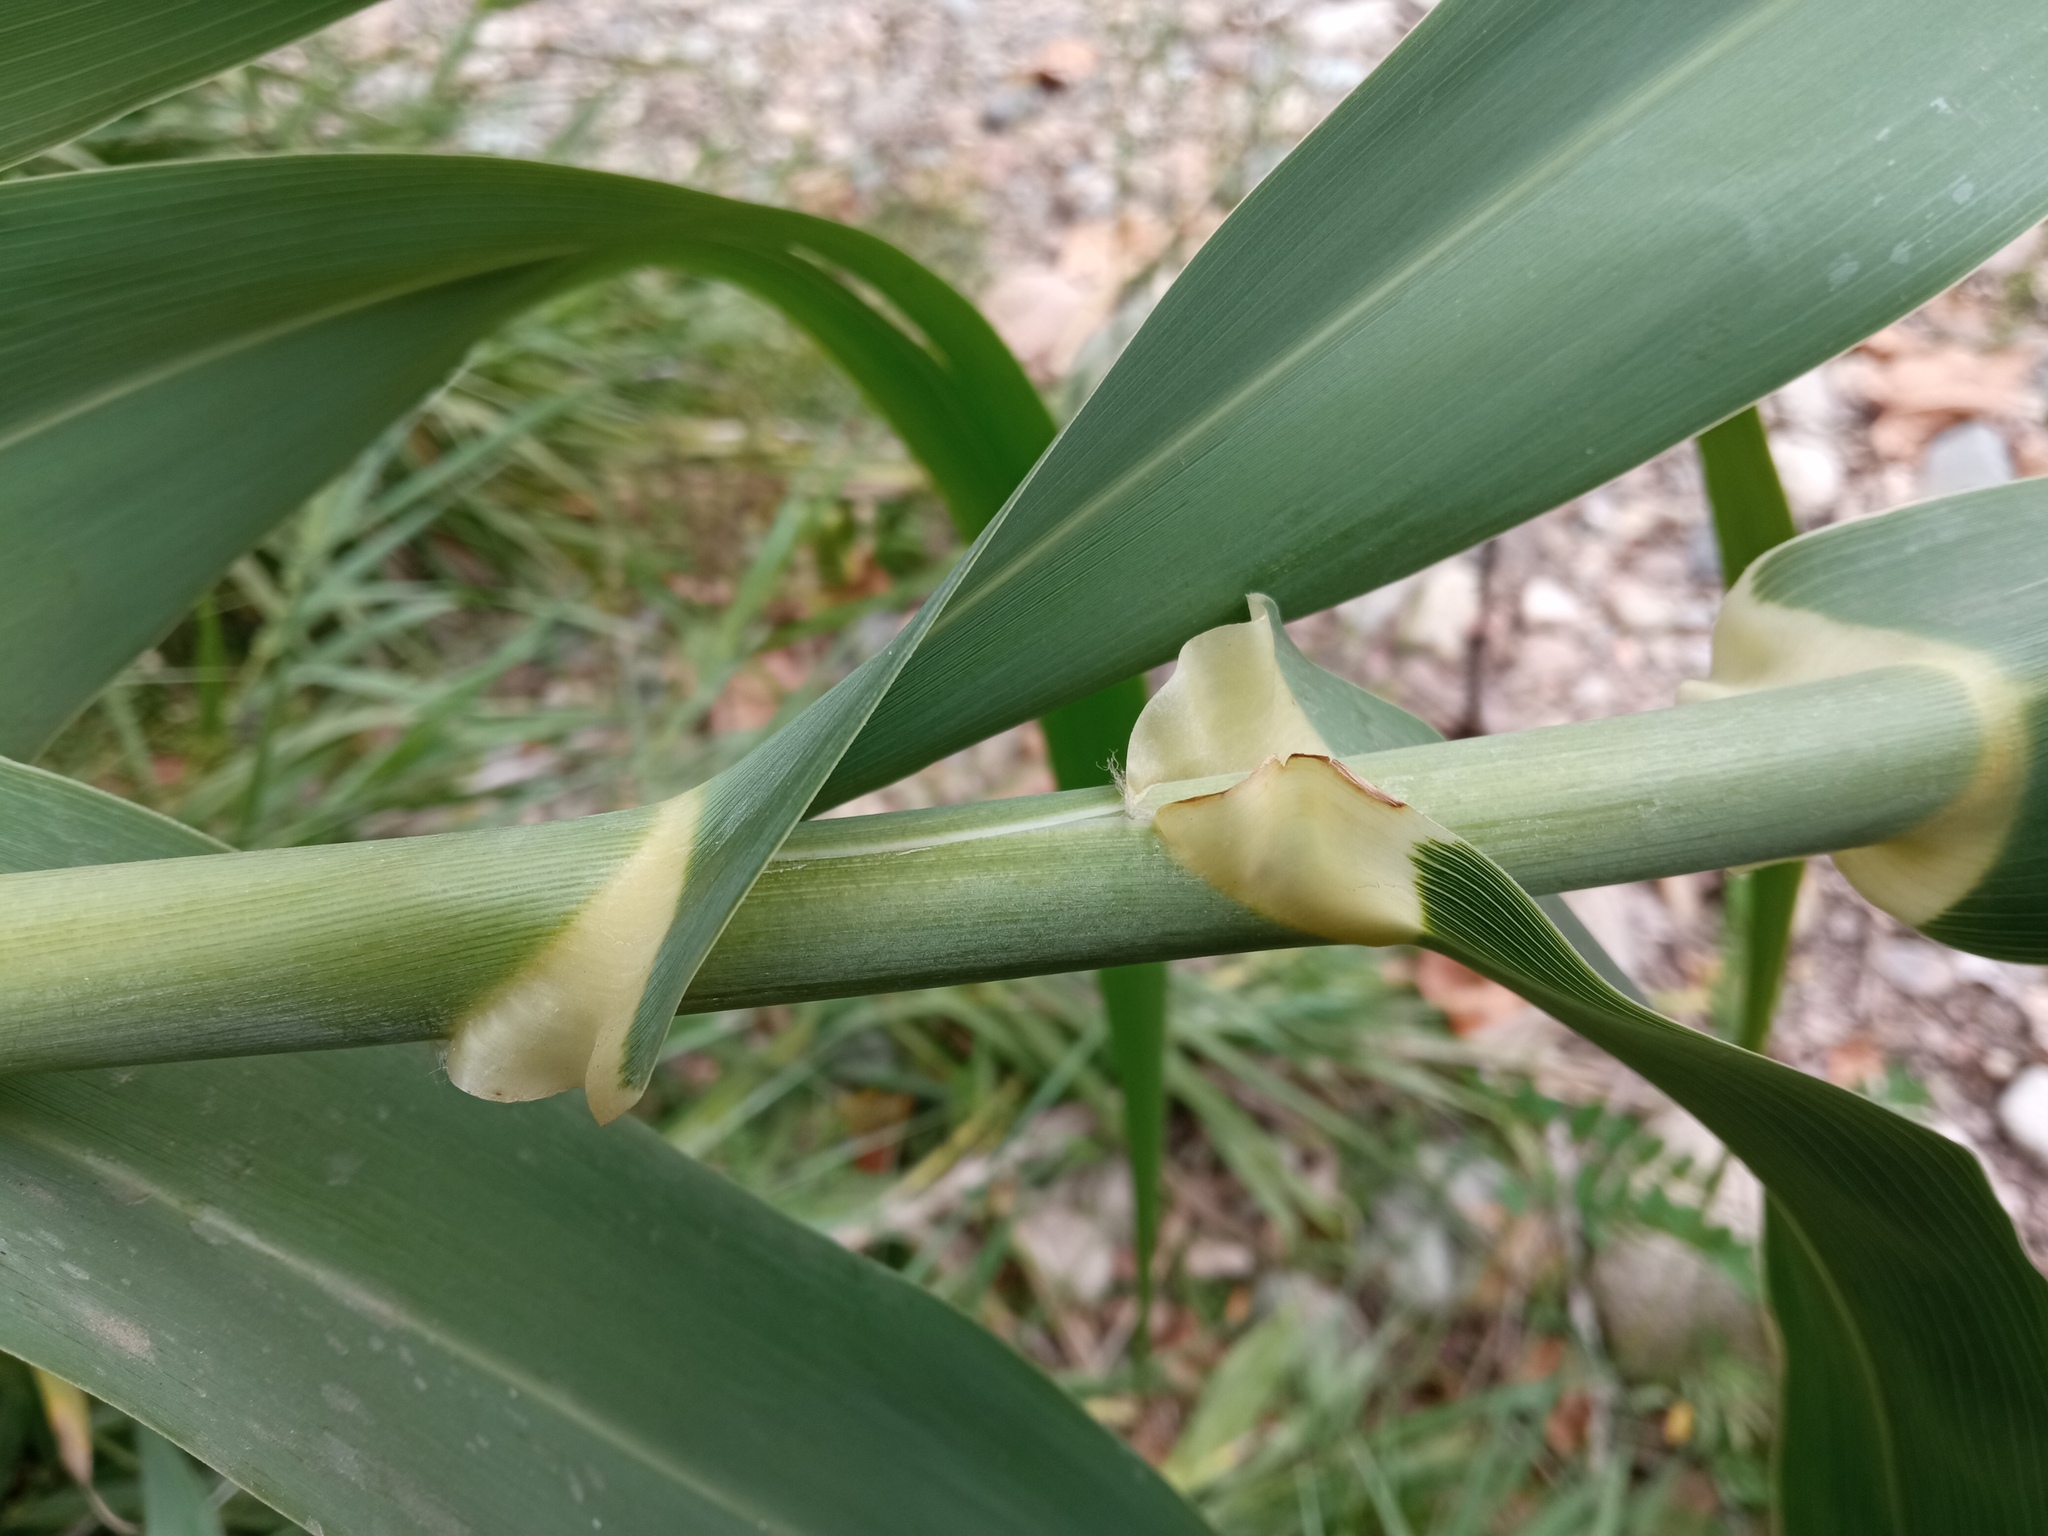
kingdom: Plantae
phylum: Tracheophyta
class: Liliopsida
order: Poales
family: Poaceae
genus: Arundo
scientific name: Arundo donax
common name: Giant reed
